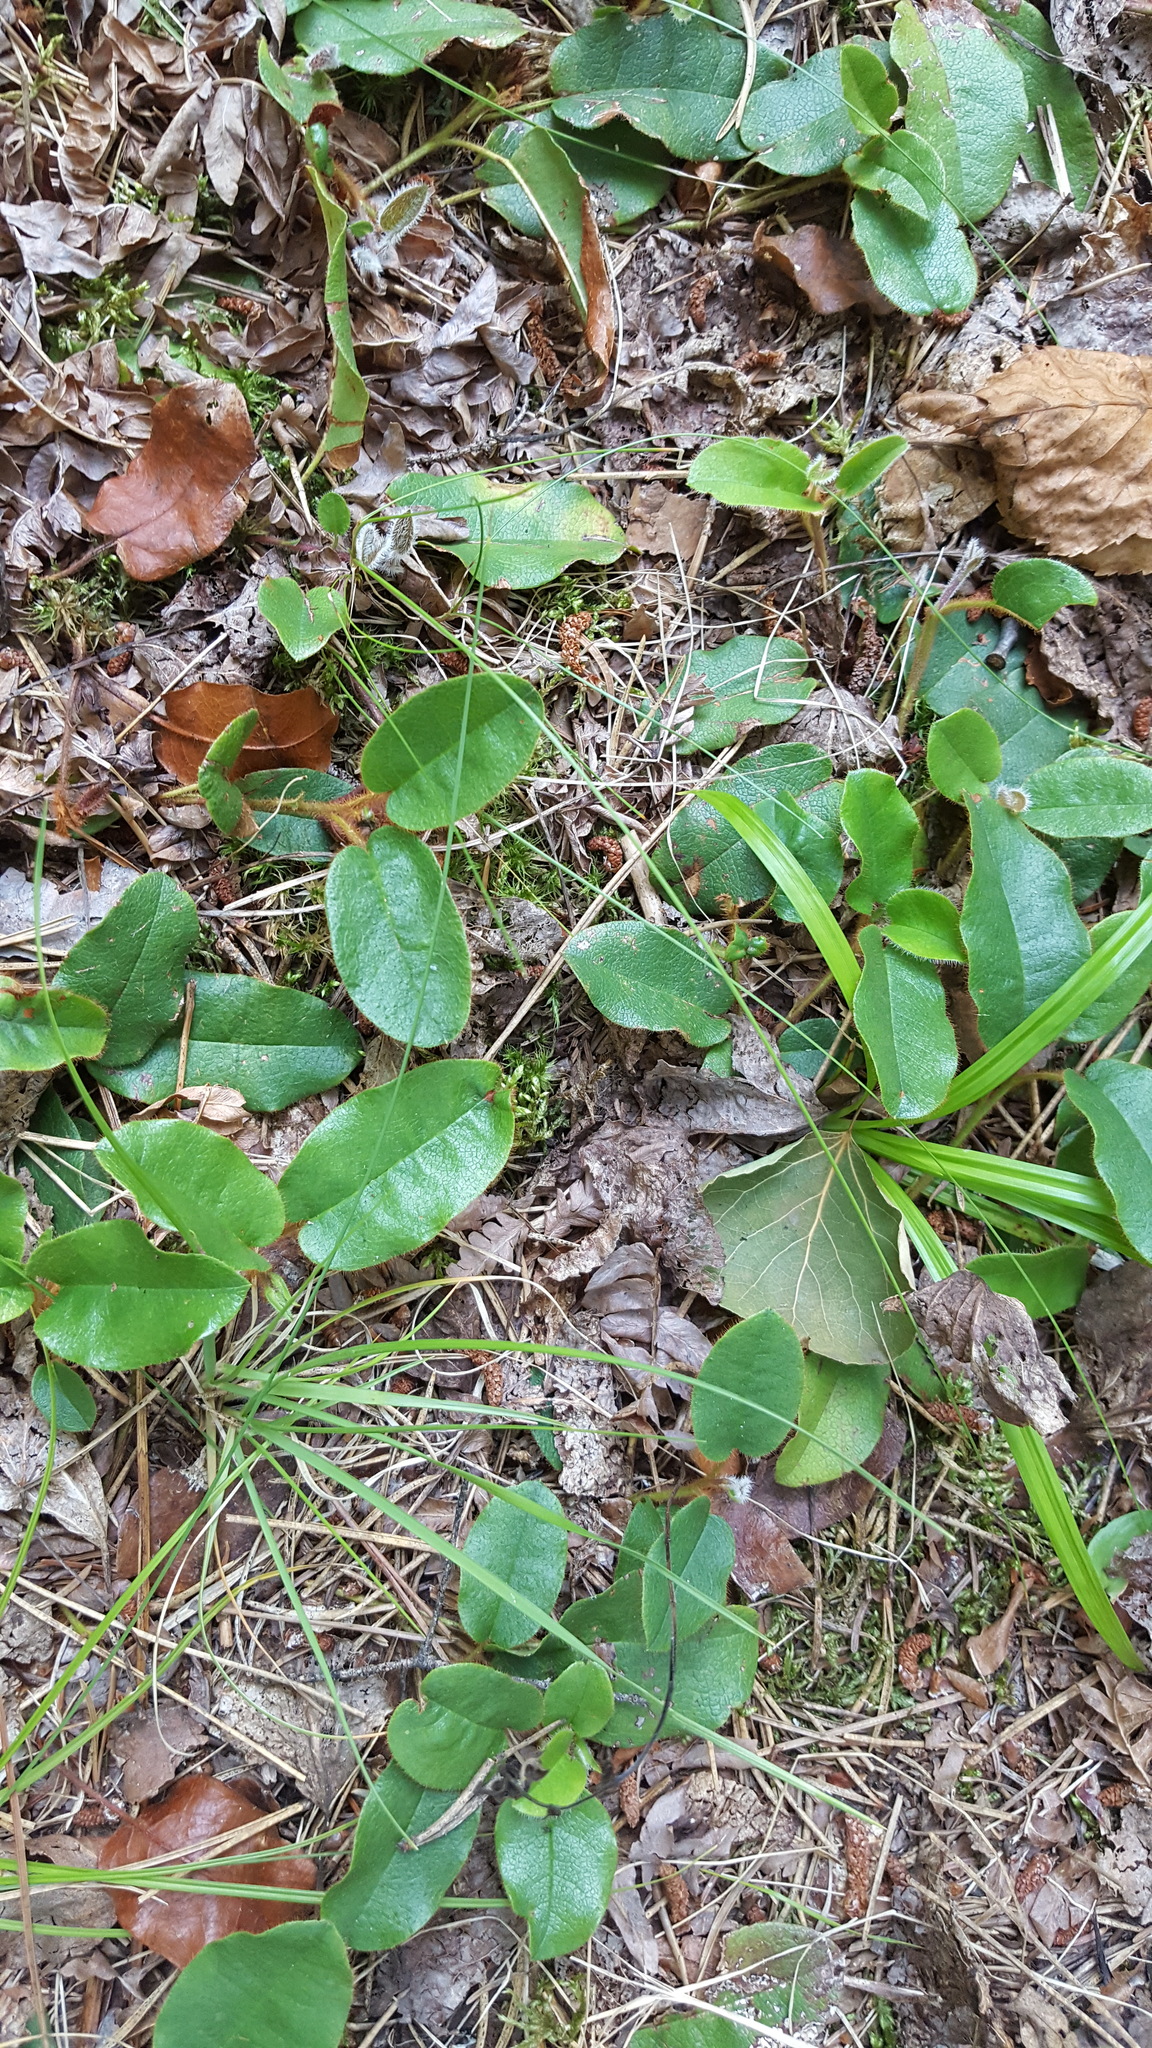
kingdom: Plantae
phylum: Tracheophyta
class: Magnoliopsida
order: Ericales
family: Ericaceae
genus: Epigaea
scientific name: Epigaea repens
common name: Gravelroot
